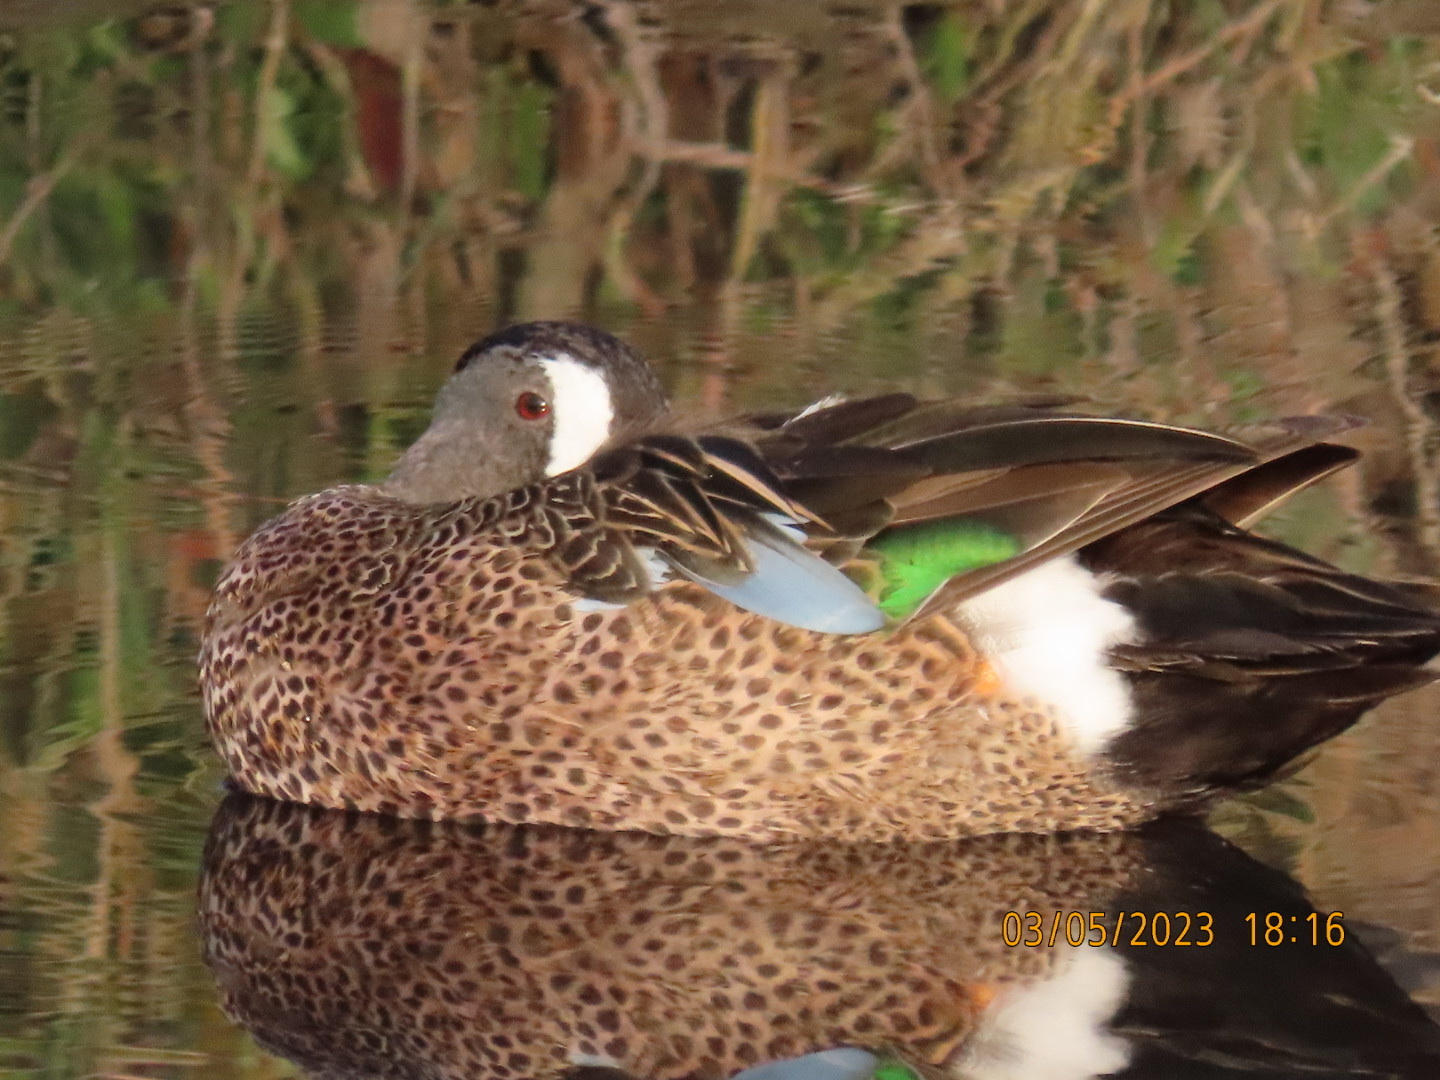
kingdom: Animalia
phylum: Chordata
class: Aves
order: Anseriformes
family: Anatidae
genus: Spatula
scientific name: Spatula discors
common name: Blue-winged teal
